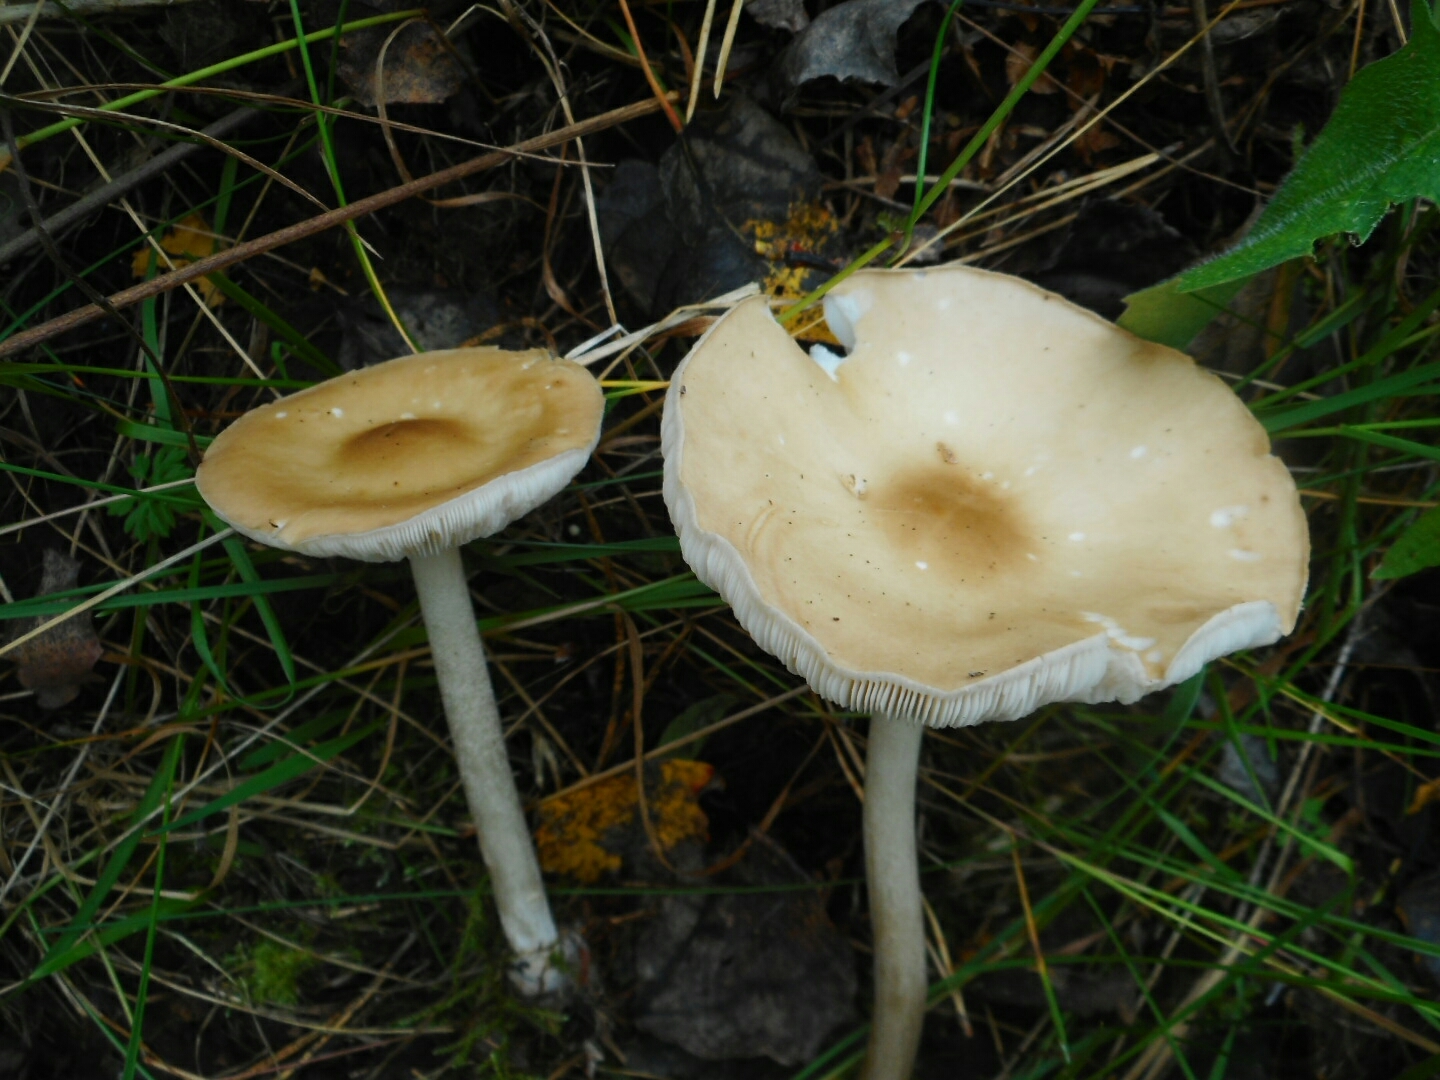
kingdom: Fungi
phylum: Basidiomycota
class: Agaricomycetes
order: Agaricales
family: Tricholomataceae
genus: Melanoleuca
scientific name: Melanoleuca strictipes
